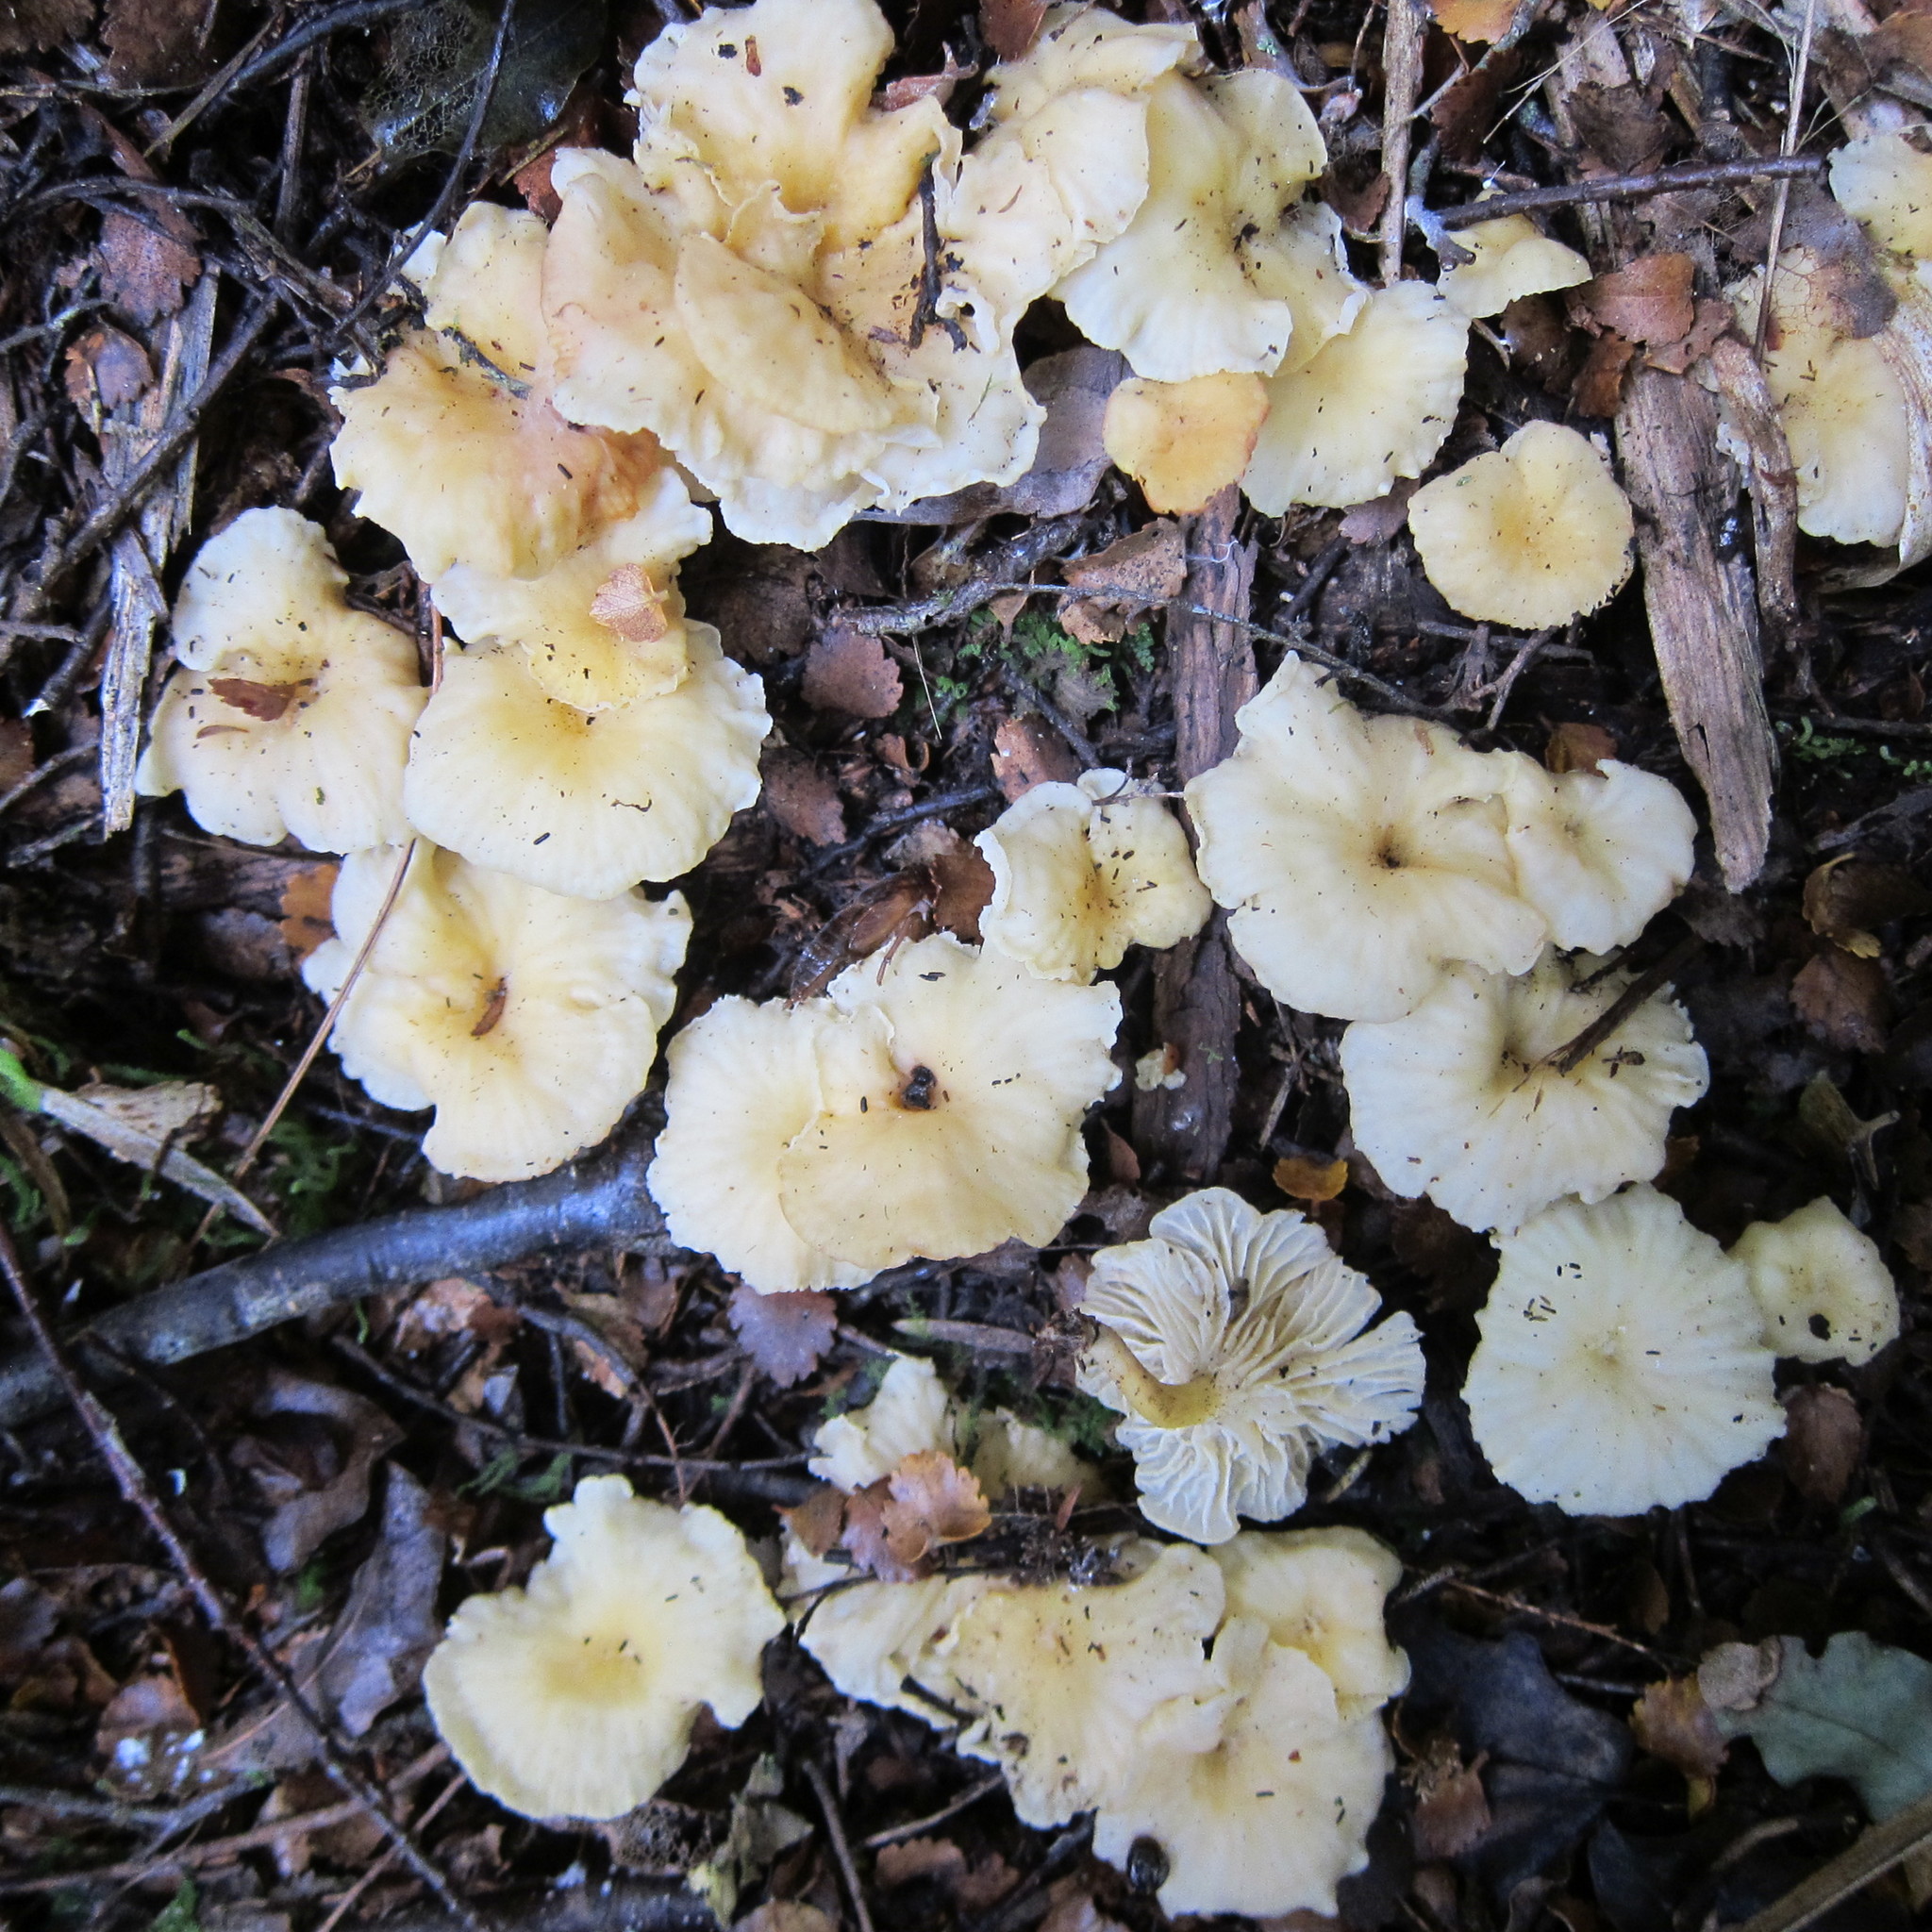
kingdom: Fungi
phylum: Basidiomycota
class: Agaricomycetes
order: Cantharellales
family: Hydnaceae
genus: Cantharellus
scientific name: Cantharellus wellingtonensis
